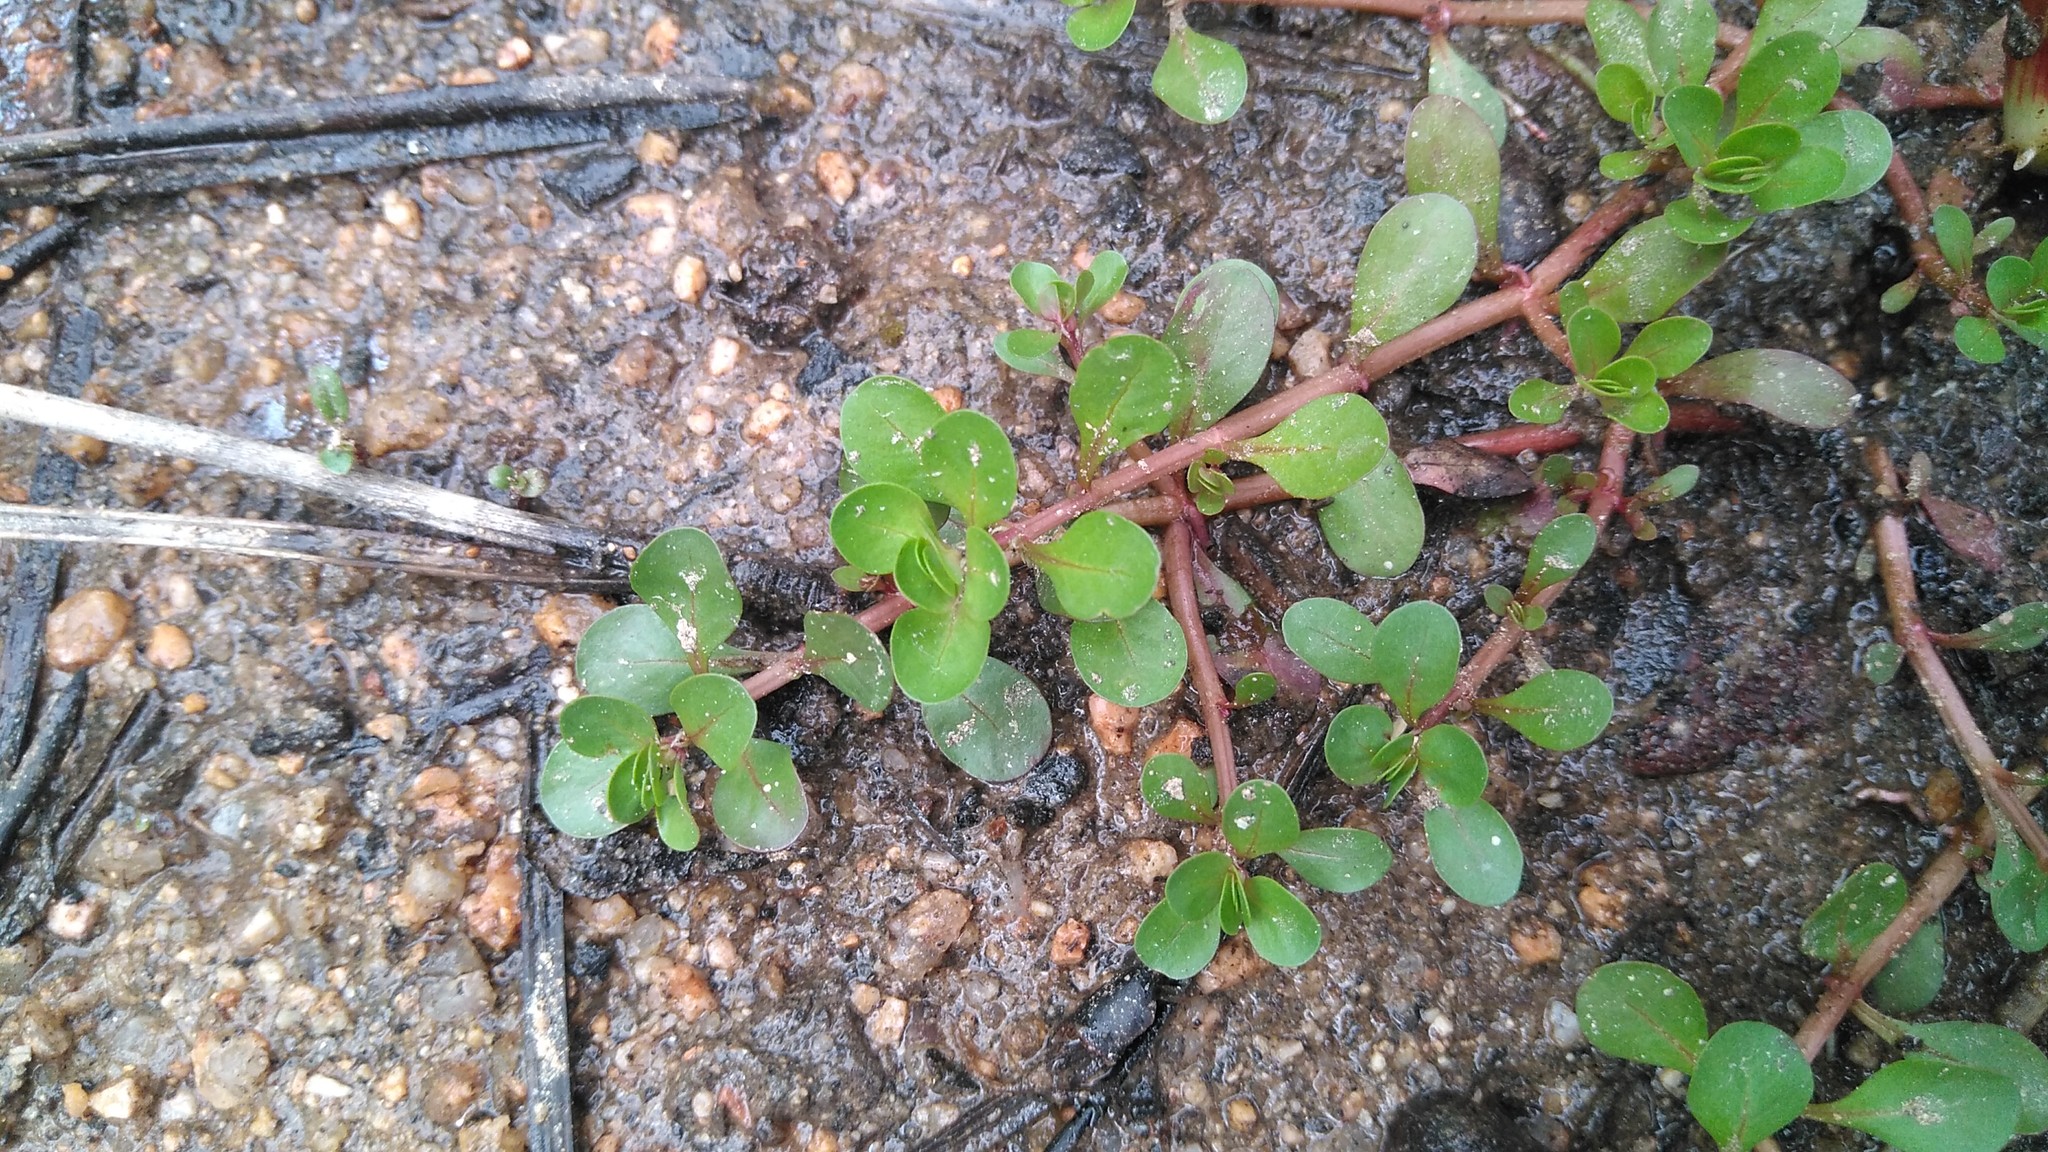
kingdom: Plantae
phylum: Tracheophyta
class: Magnoliopsida
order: Myrtales
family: Lythraceae
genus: Lythrum
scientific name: Lythrum portula
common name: Water purslane
